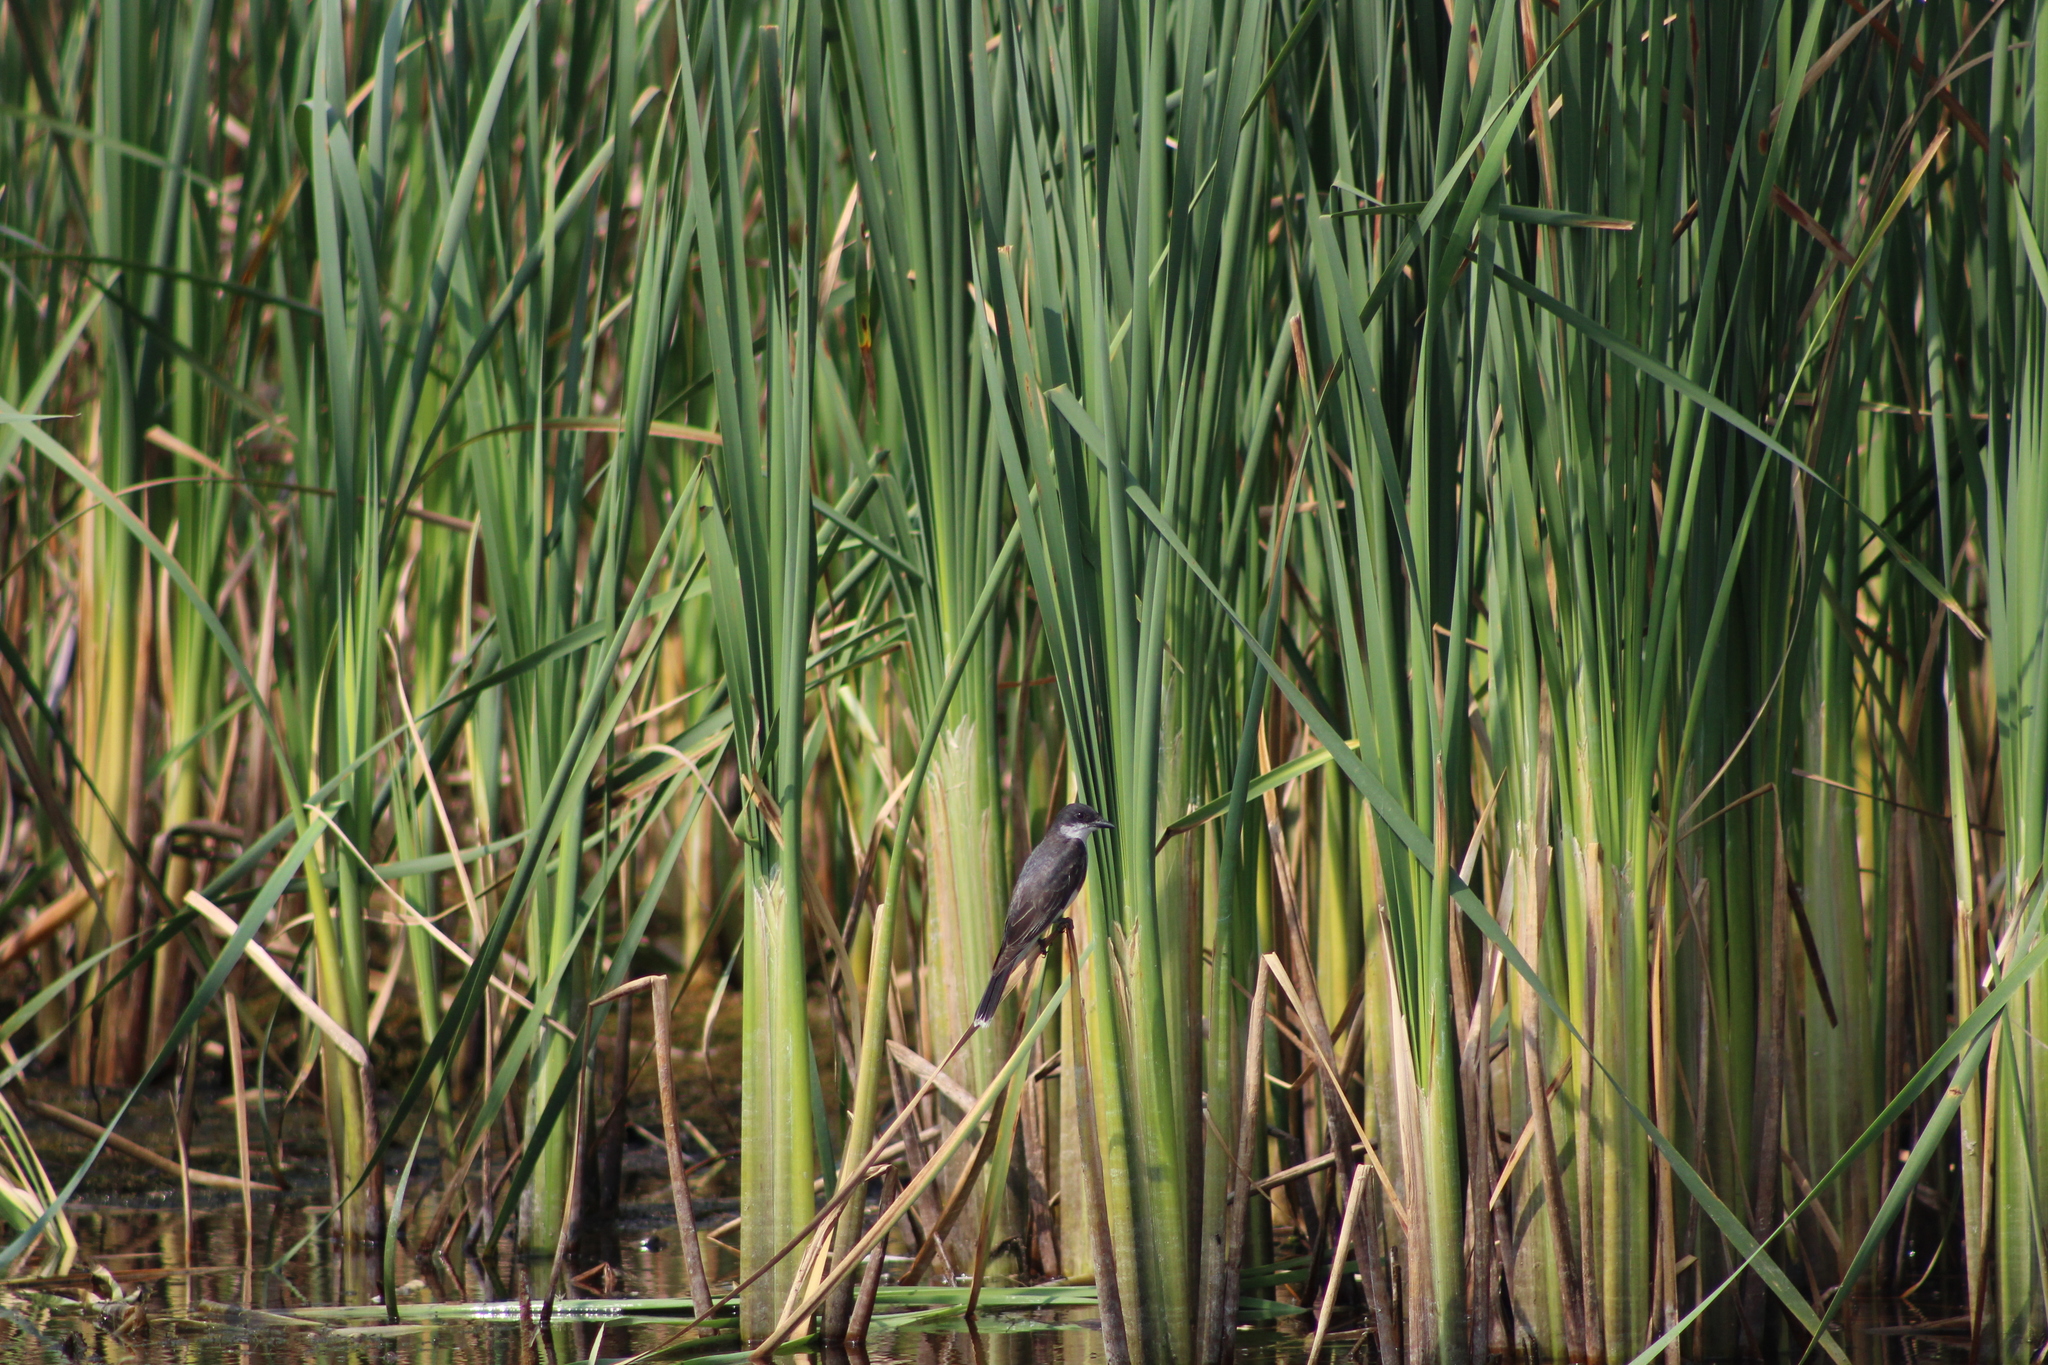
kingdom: Animalia
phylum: Chordata
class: Aves
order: Passeriformes
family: Tyrannidae
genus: Tyrannus
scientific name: Tyrannus tyrannus
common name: Eastern kingbird
